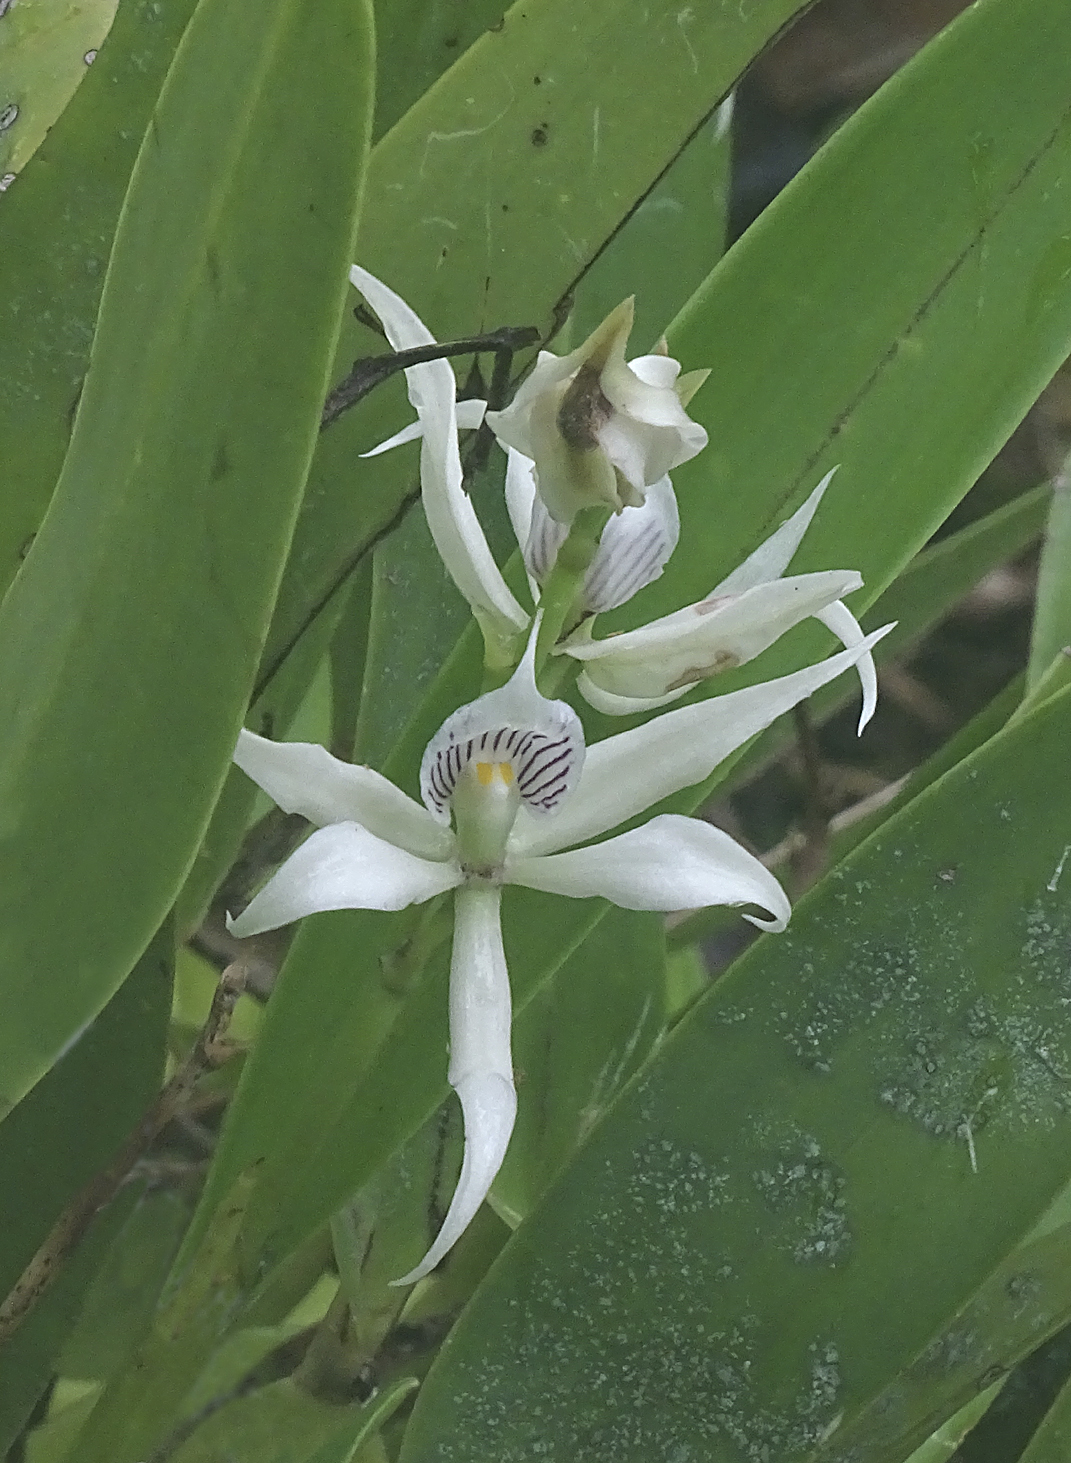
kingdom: Plantae
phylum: Tracheophyta
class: Liliopsida
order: Asparagales
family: Orchidaceae
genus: Prosthechea
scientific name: Prosthechea fragrans
